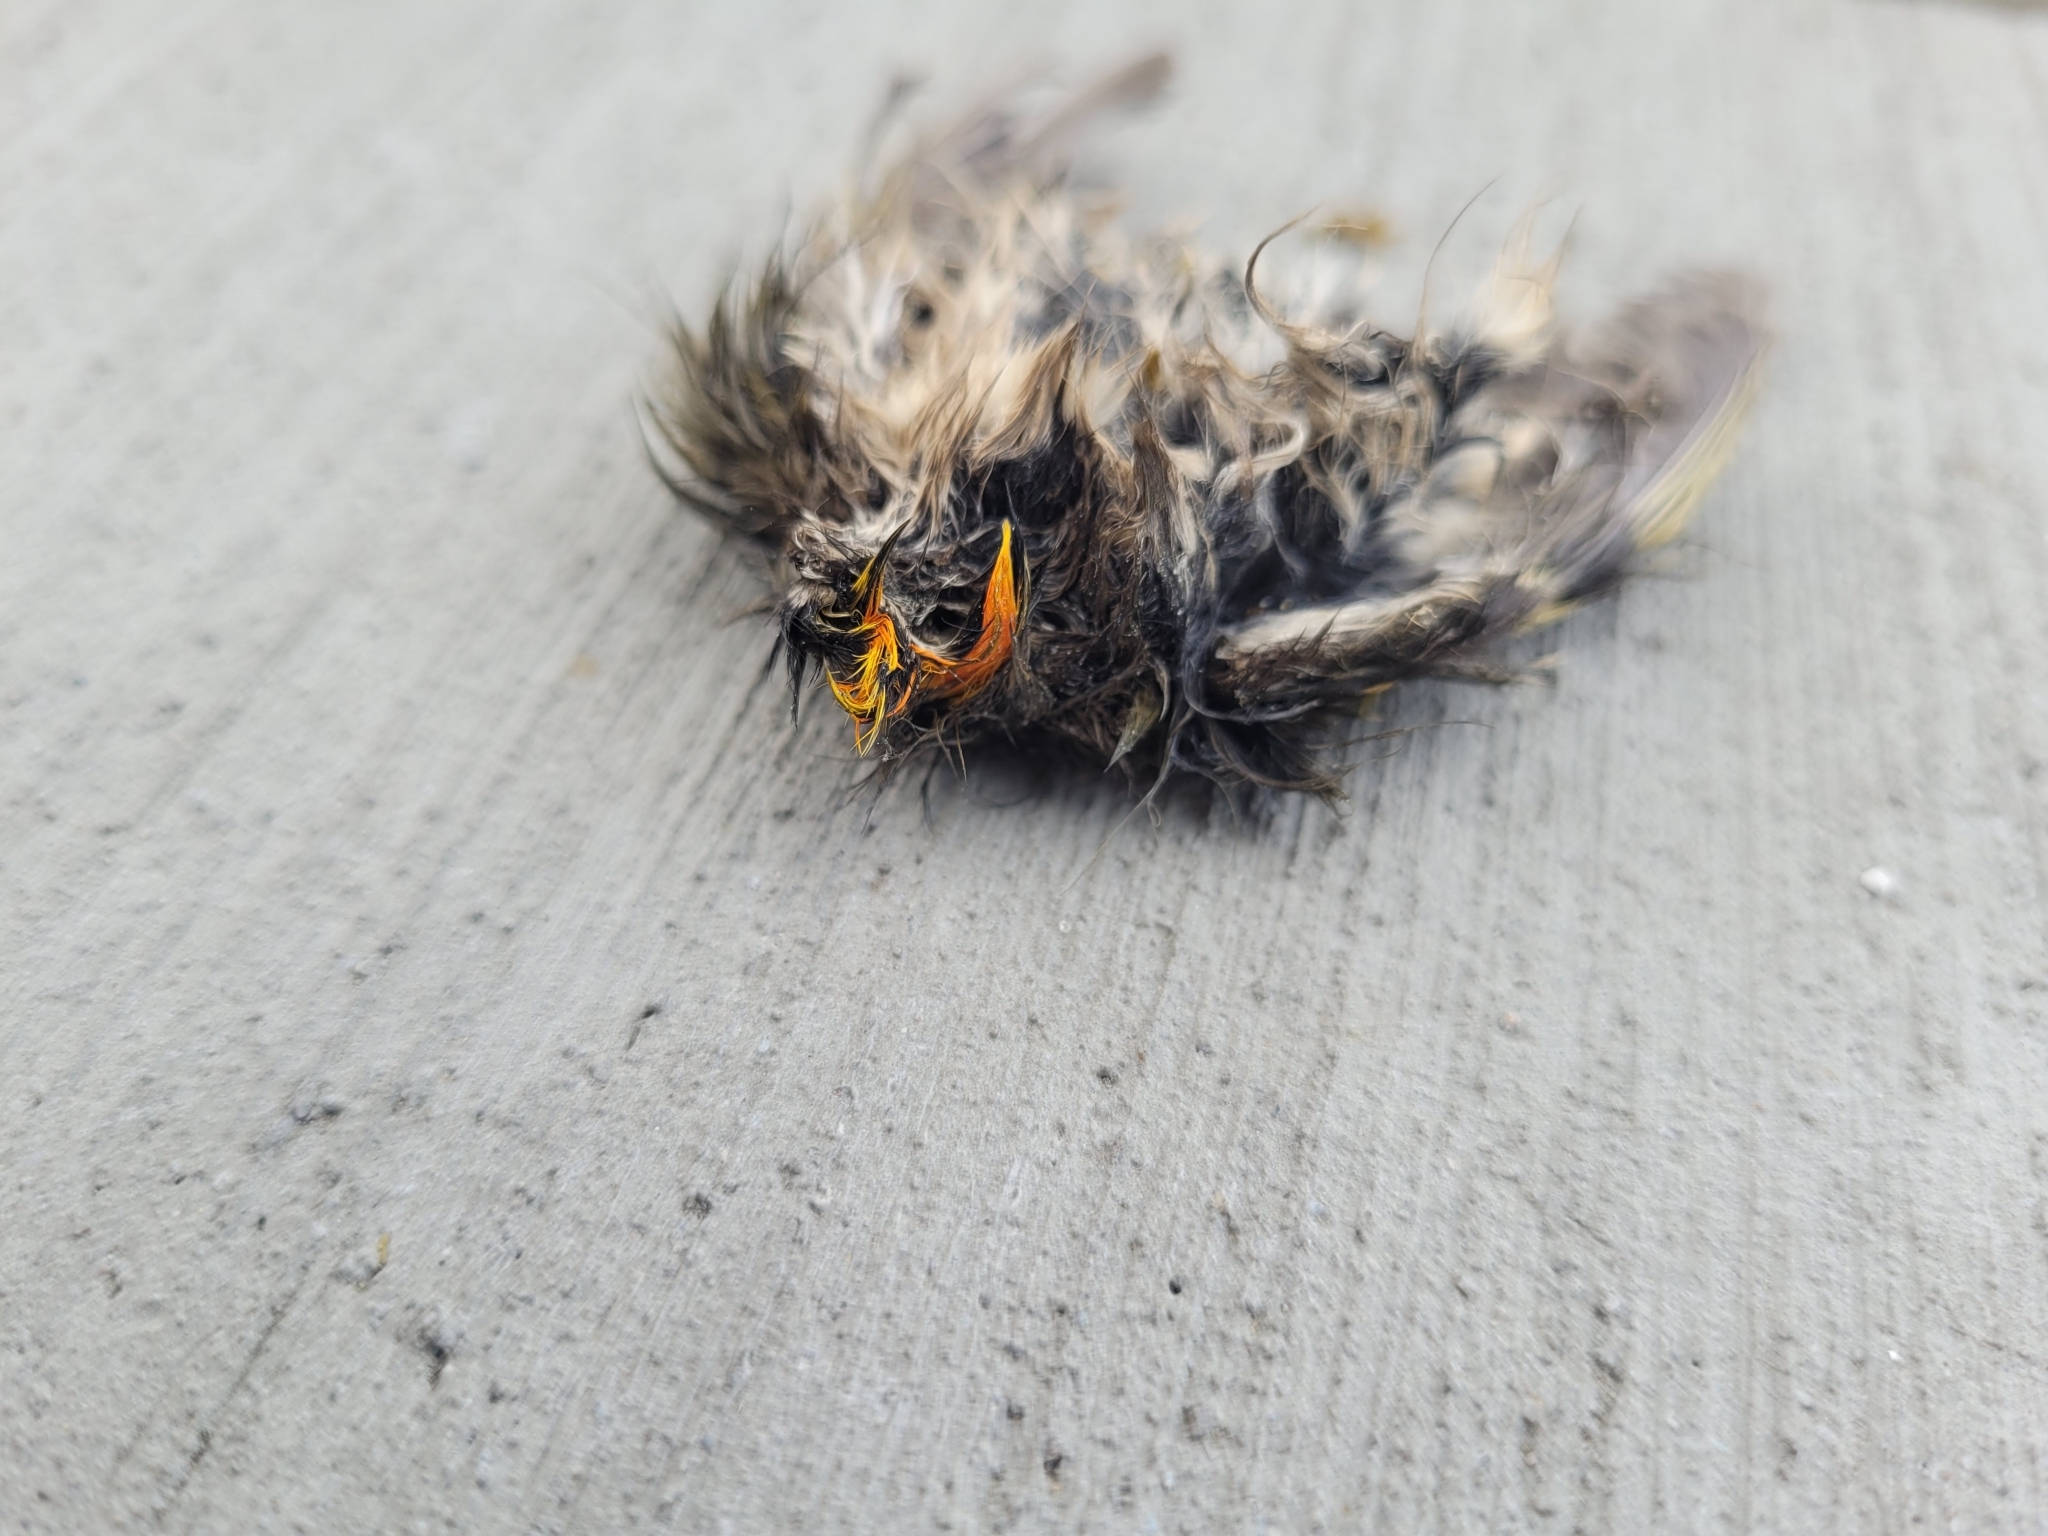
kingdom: Animalia
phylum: Chordata
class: Aves
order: Passeriformes
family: Regulidae
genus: Regulus
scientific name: Regulus satrapa
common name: Golden-crowned kinglet
